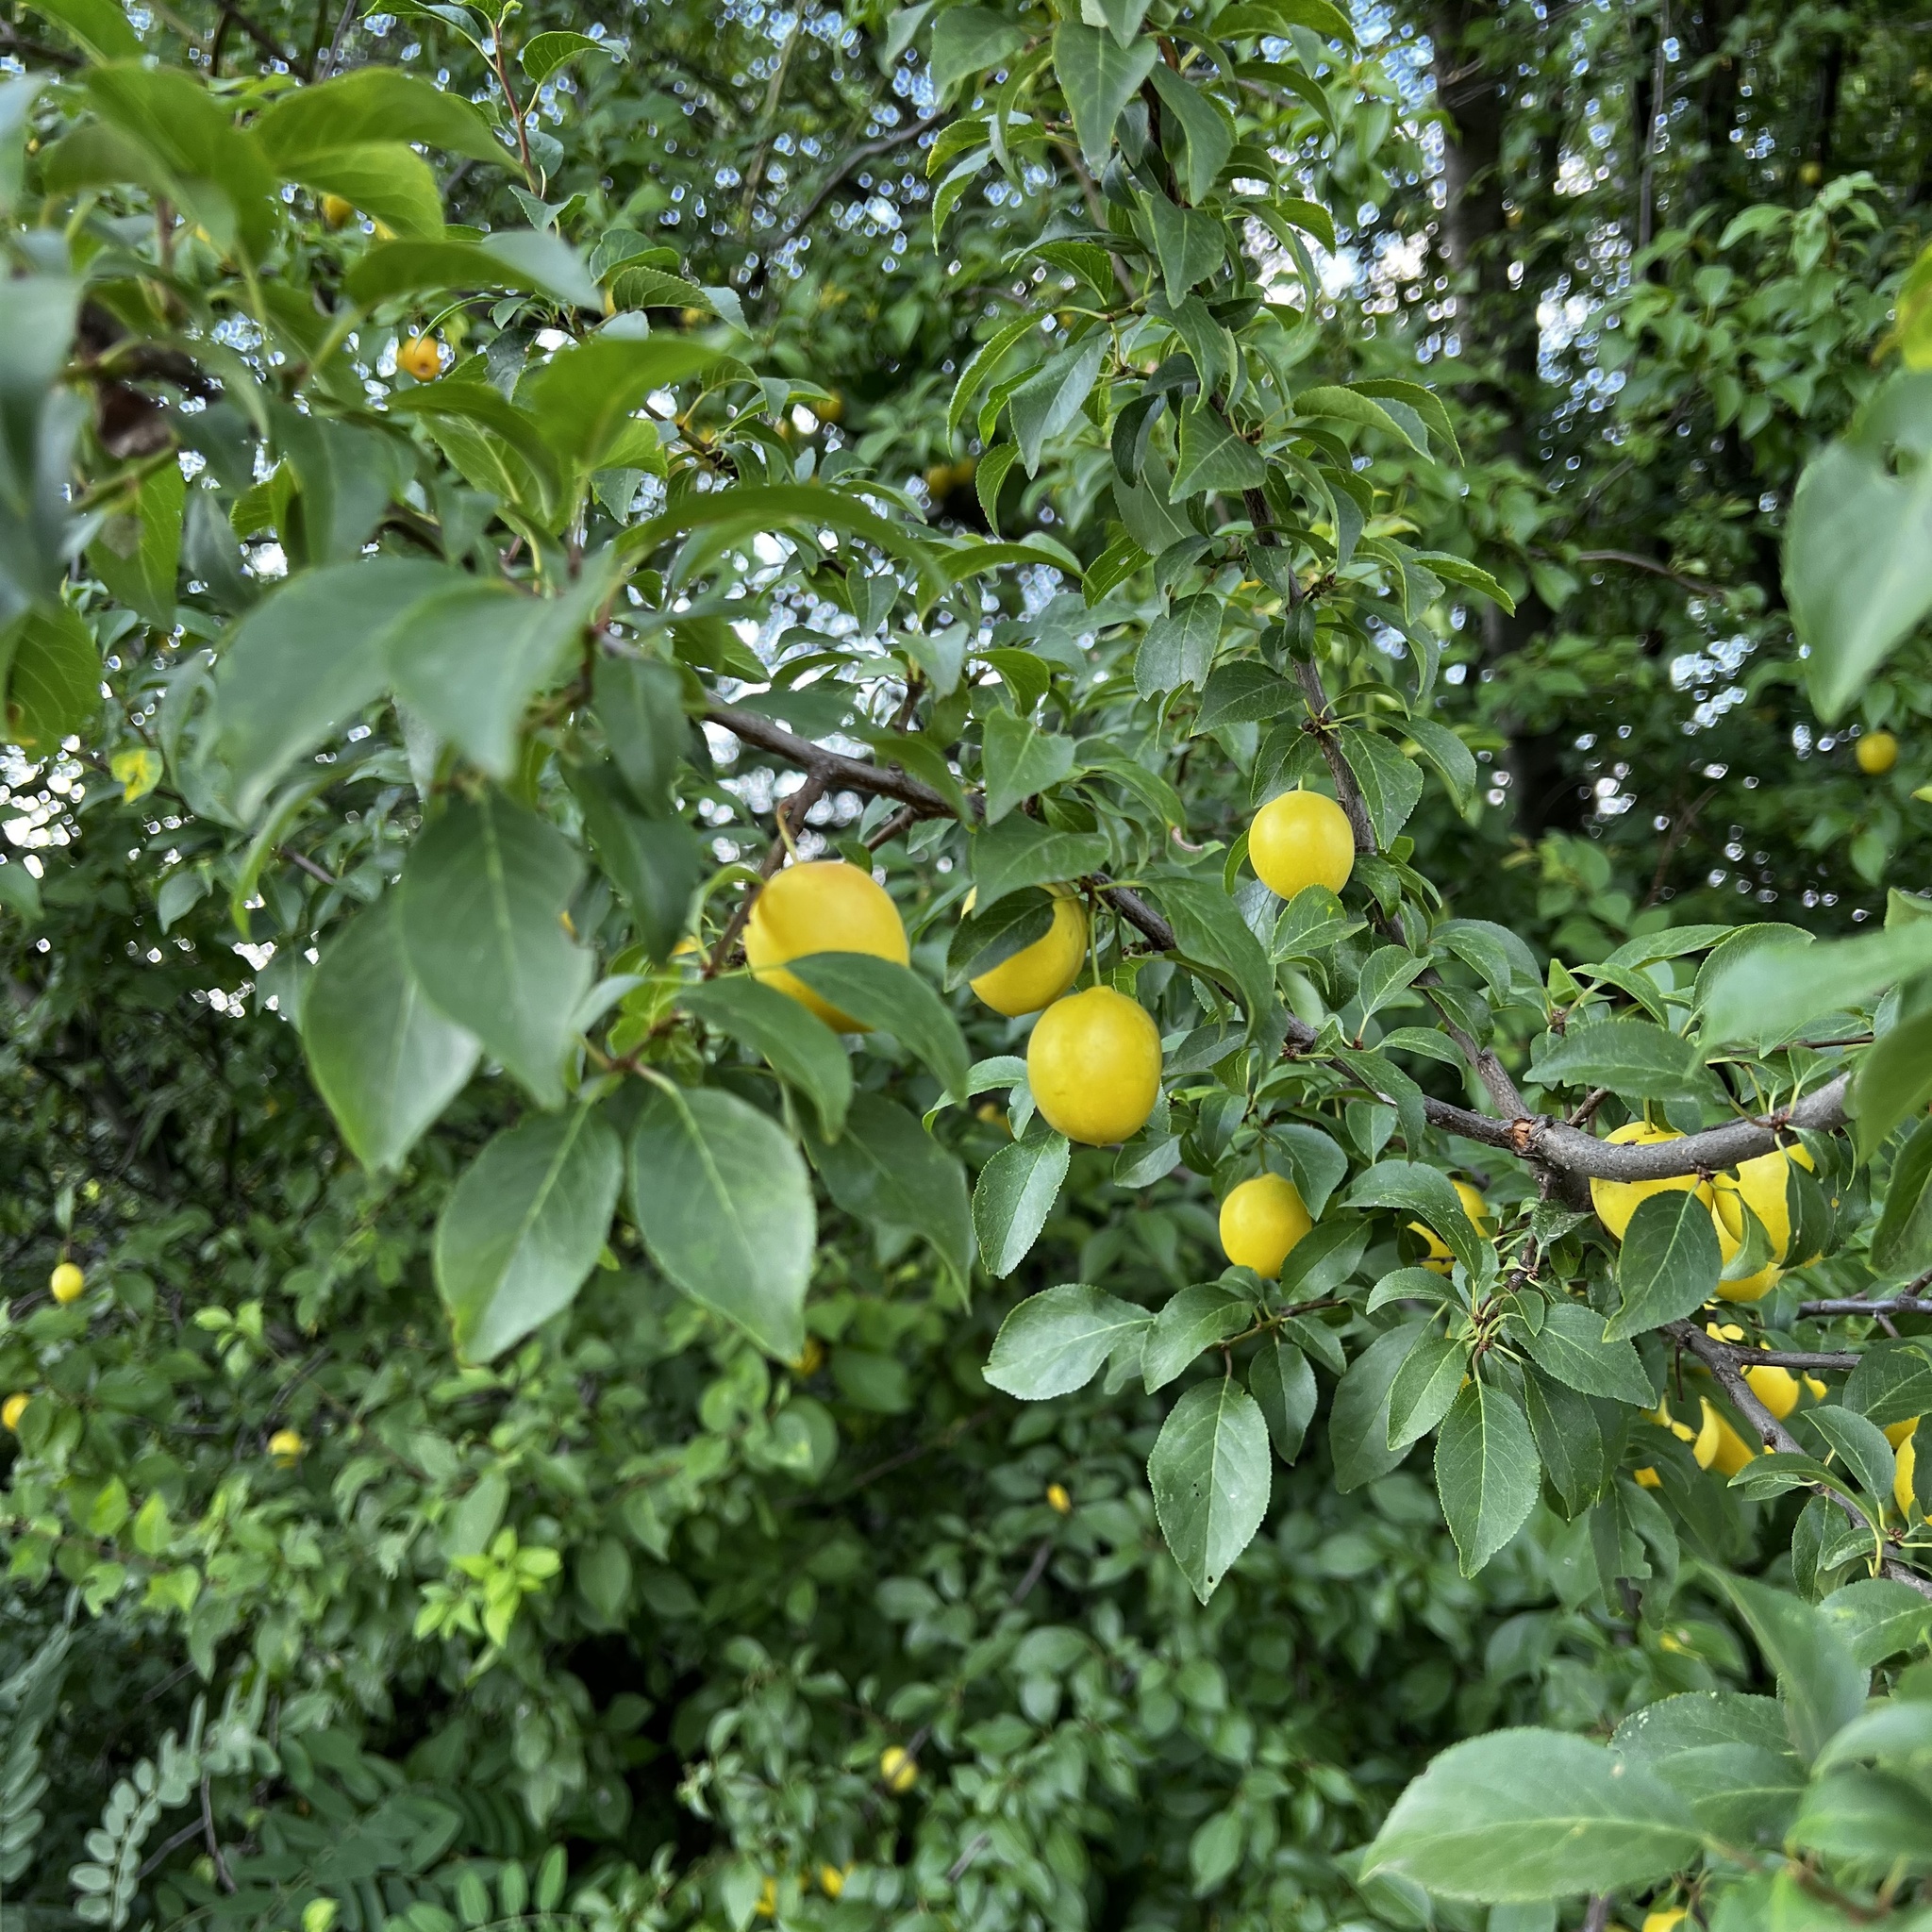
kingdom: Plantae
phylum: Tracheophyta
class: Magnoliopsida
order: Rosales
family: Rosaceae
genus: Prunus
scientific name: Prunus cerasifera
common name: Cherry plum
